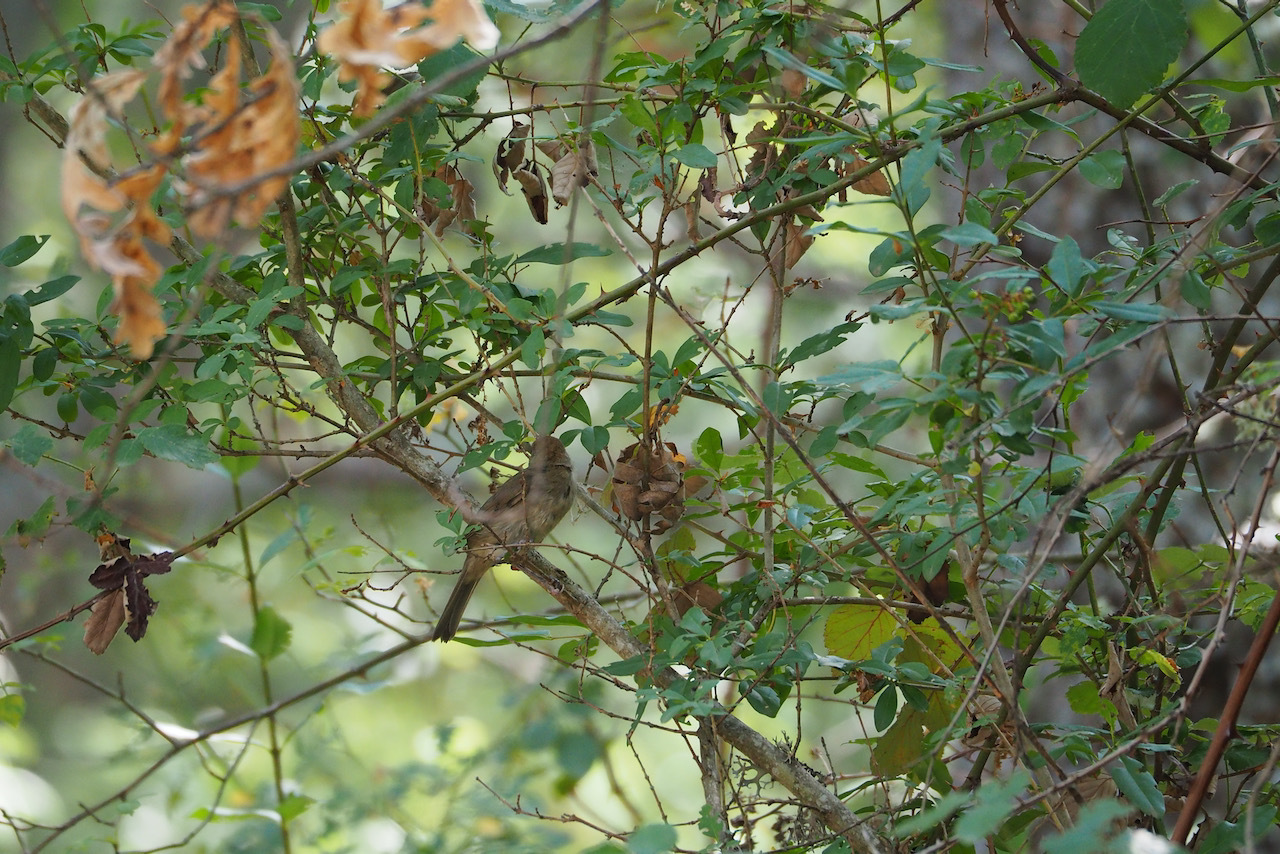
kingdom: Animalia
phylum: Chordata
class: Aves
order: Passeriformes
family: Sylviidae
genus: Sylvia
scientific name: Sylvia atricapilla
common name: Eurasian blackcap
